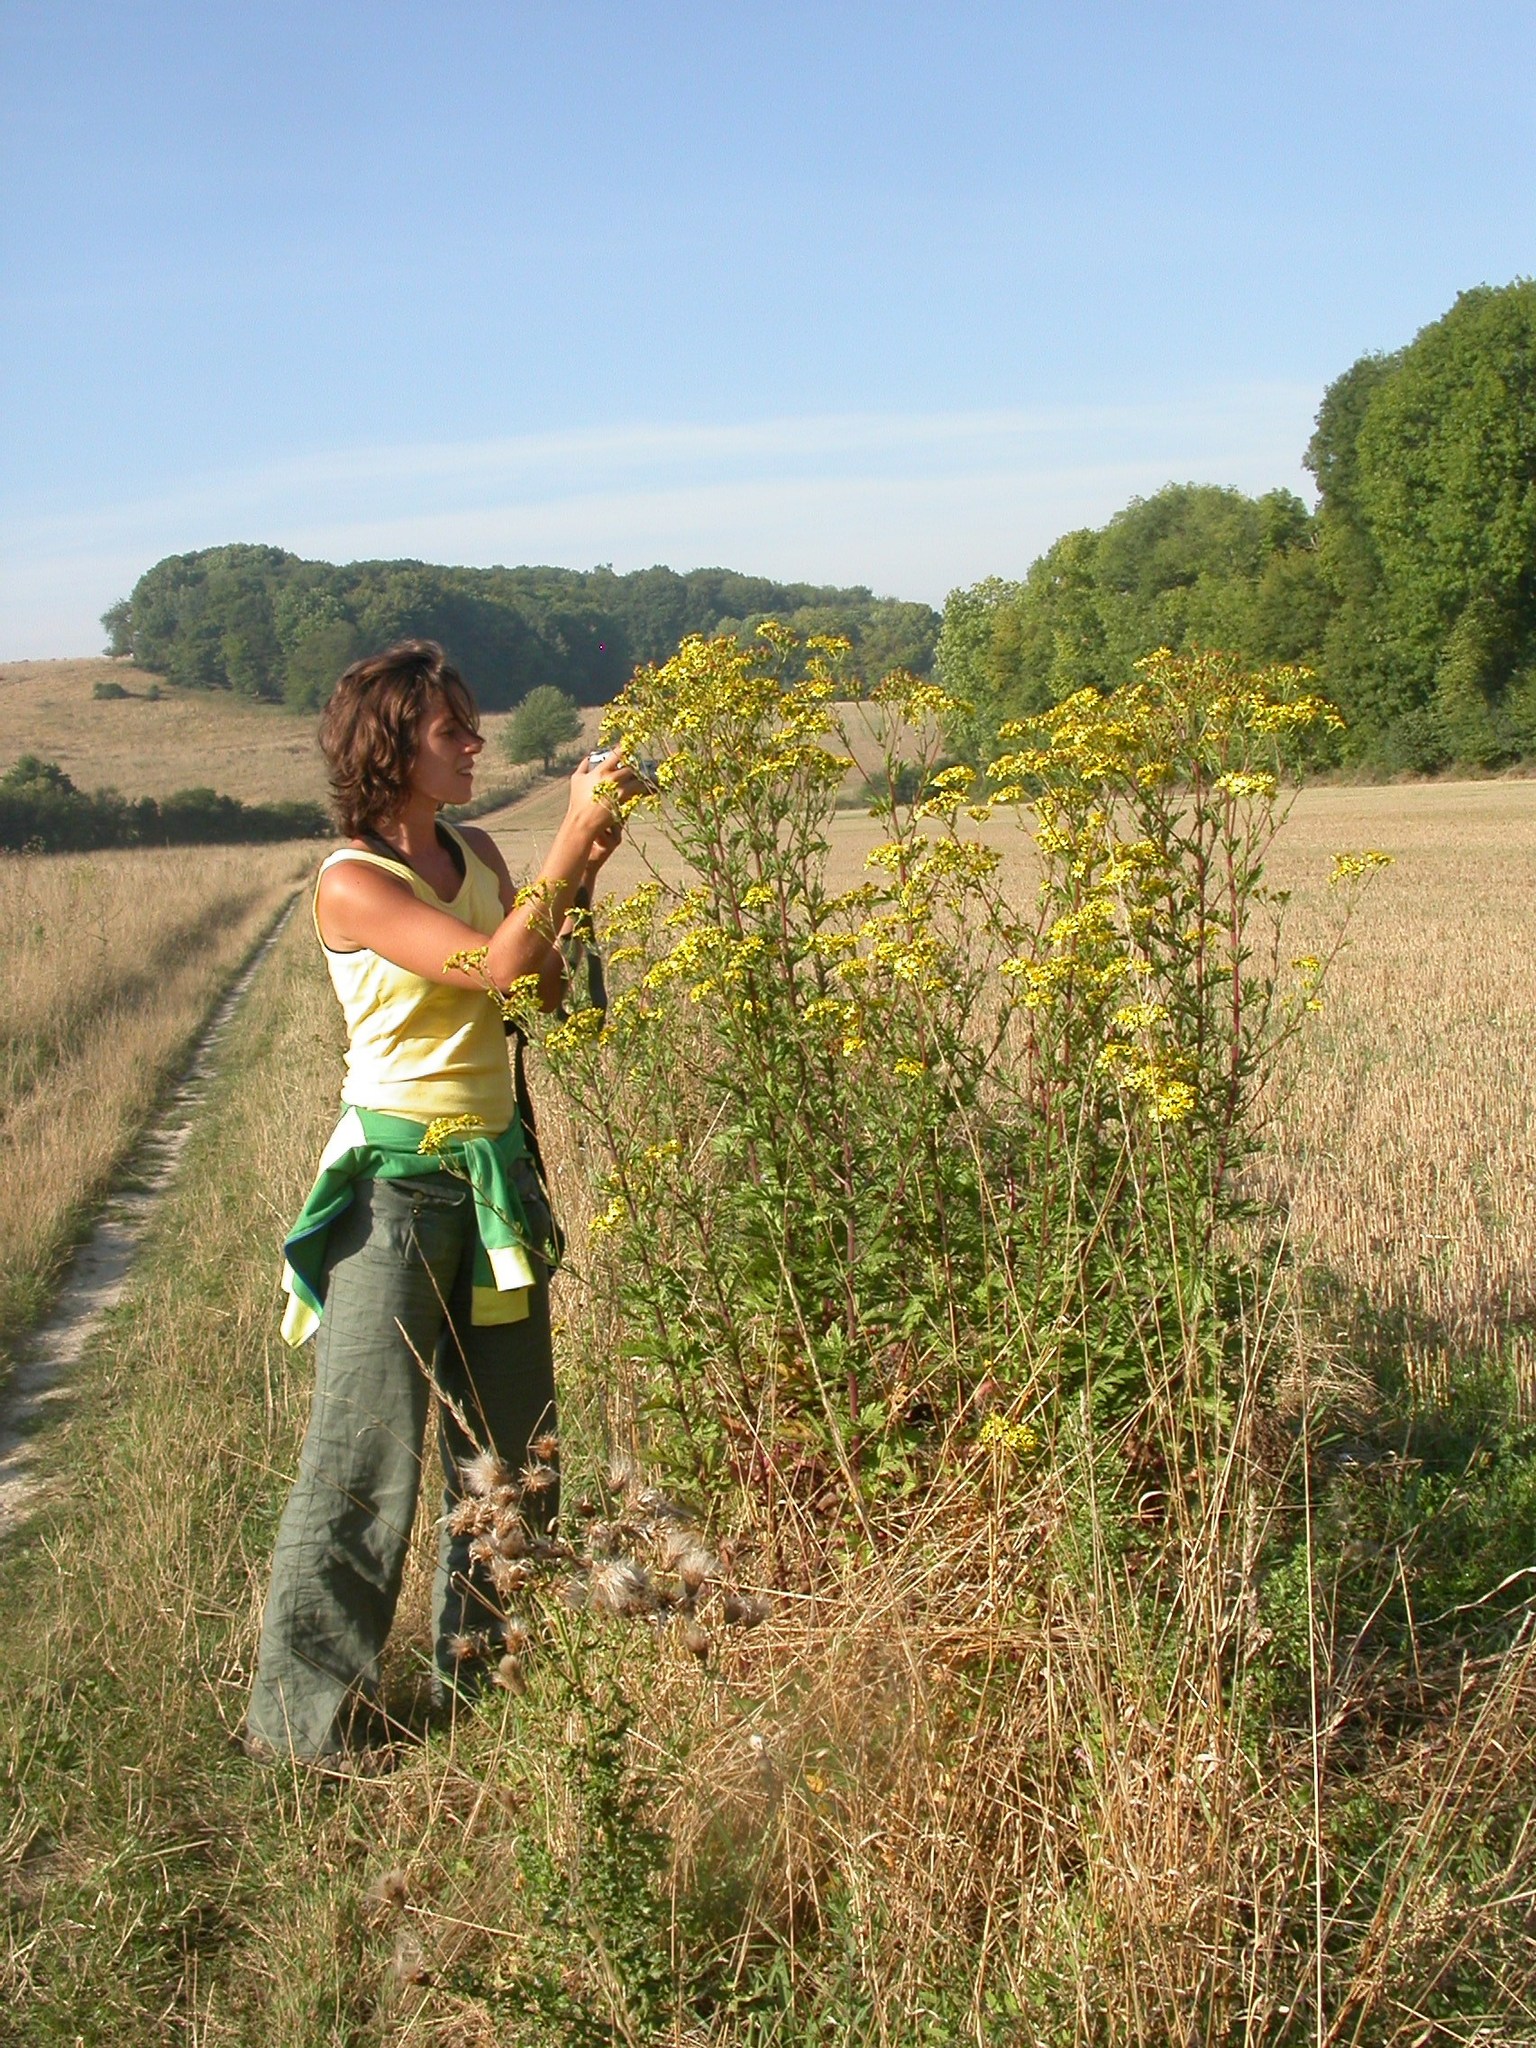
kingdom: Plantae
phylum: Tracheophyta
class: Magnoliopsida
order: Asterales
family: Asteraceae
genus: Jacobaea
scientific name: Jacobaea vulgaris
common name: Stinking willie
